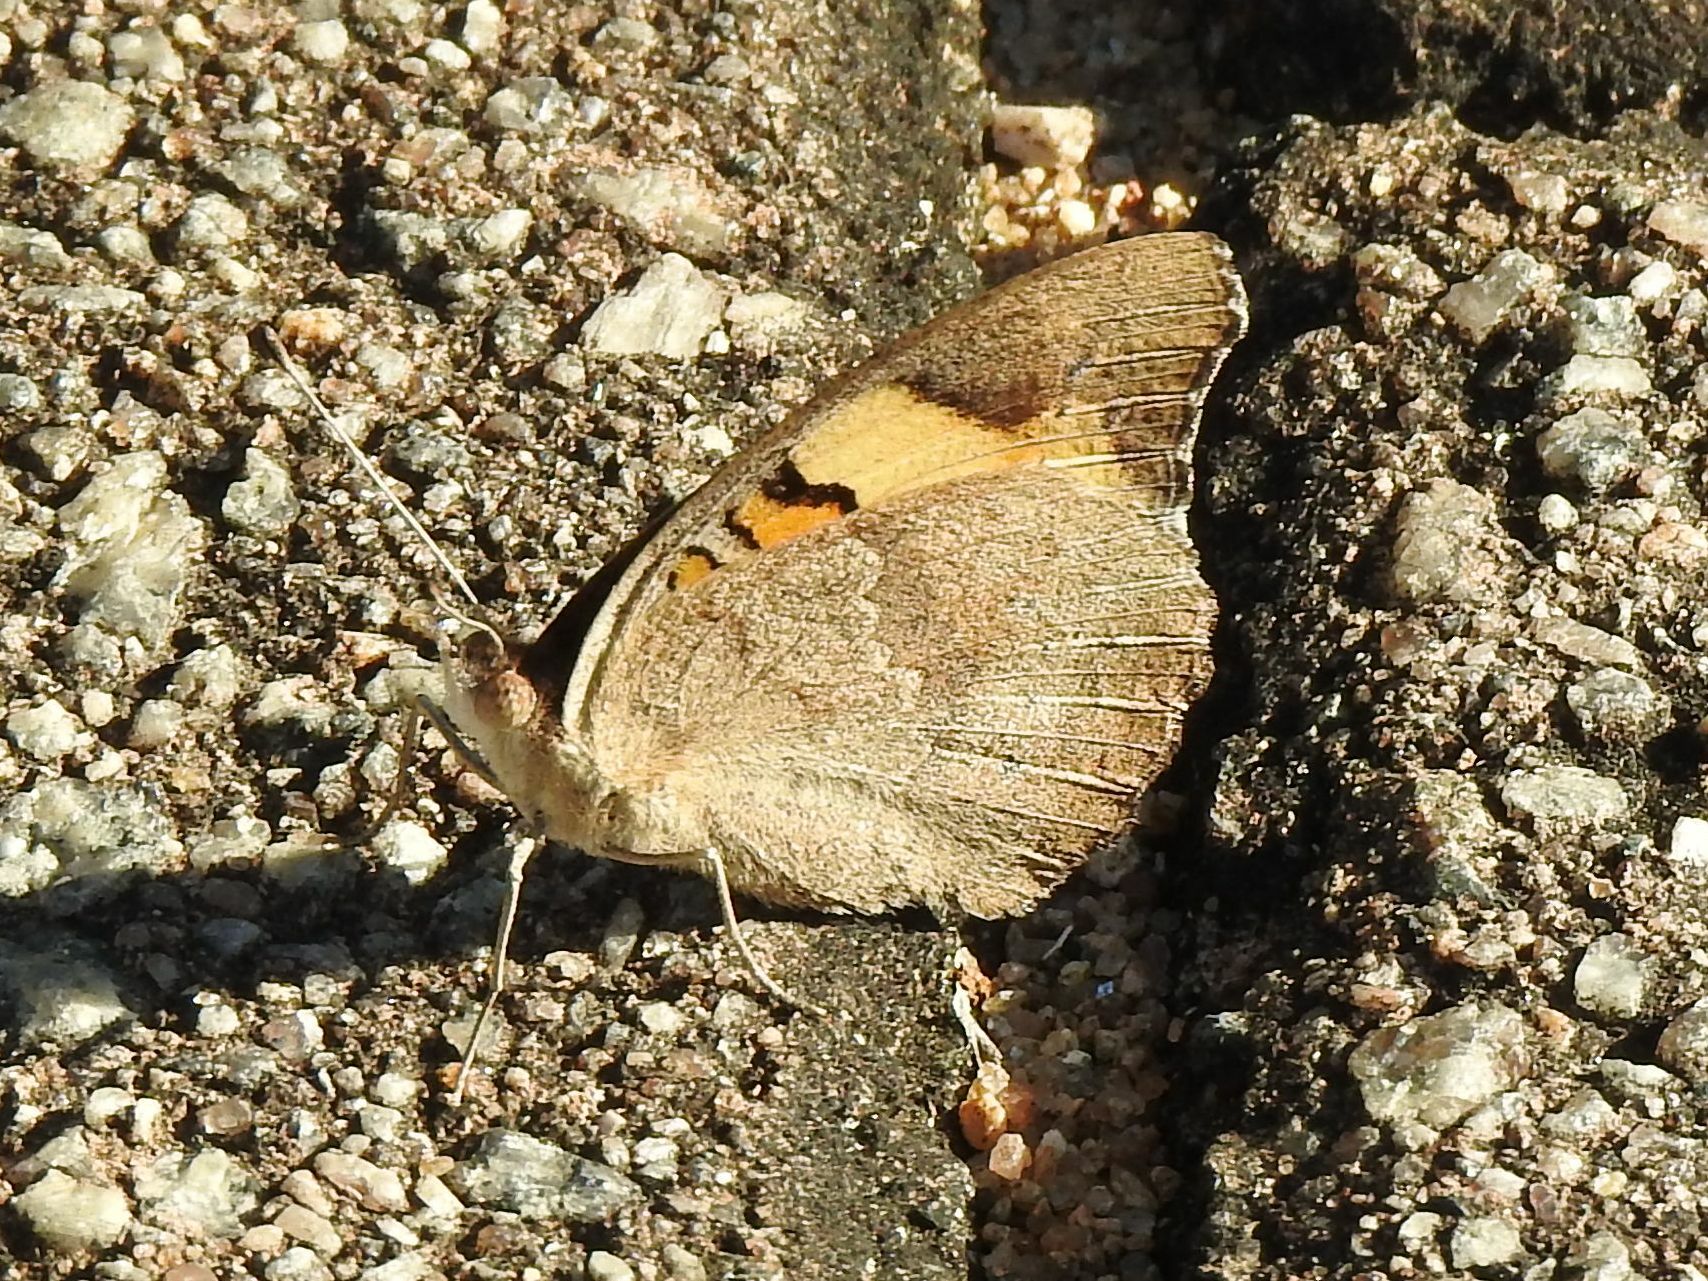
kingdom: Animalia
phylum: Arthropoda
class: Insecta
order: Lepidoptera
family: Nymphalidae
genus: Junonia
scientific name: Junonia hierta
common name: Yellow pansy
